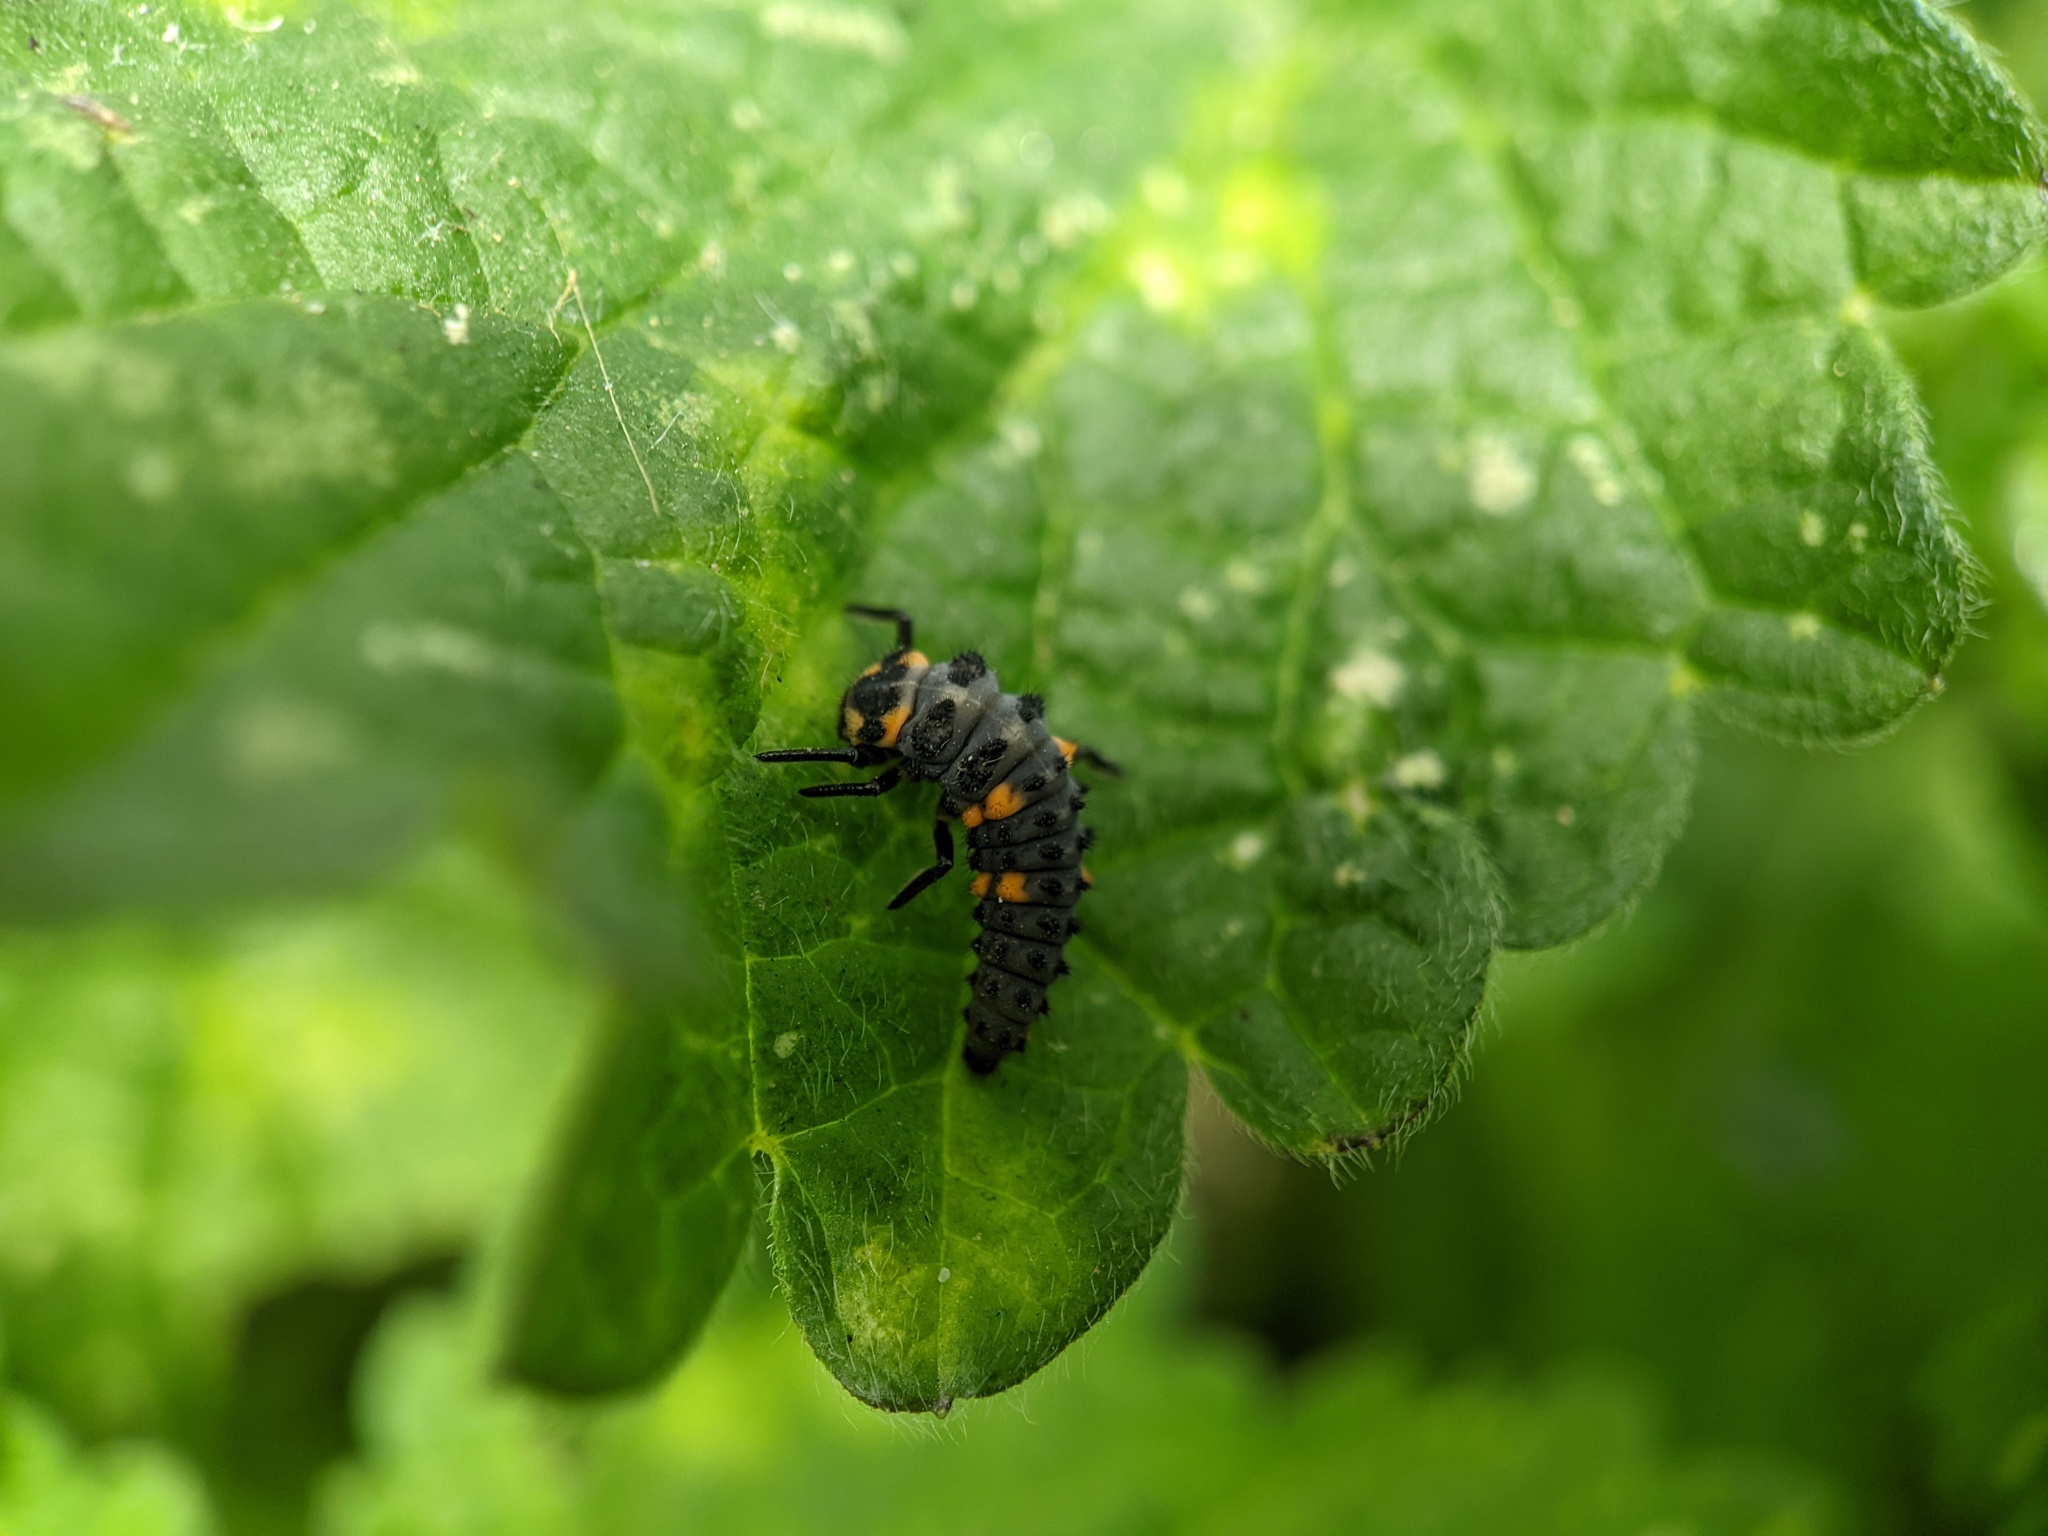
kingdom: Animalia
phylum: Arthropoda
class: Insecta
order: Coleoptera
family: Coccinellidae
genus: Coccinella
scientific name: Coccinella septempunctata
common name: Sevenspotted lady beetle
